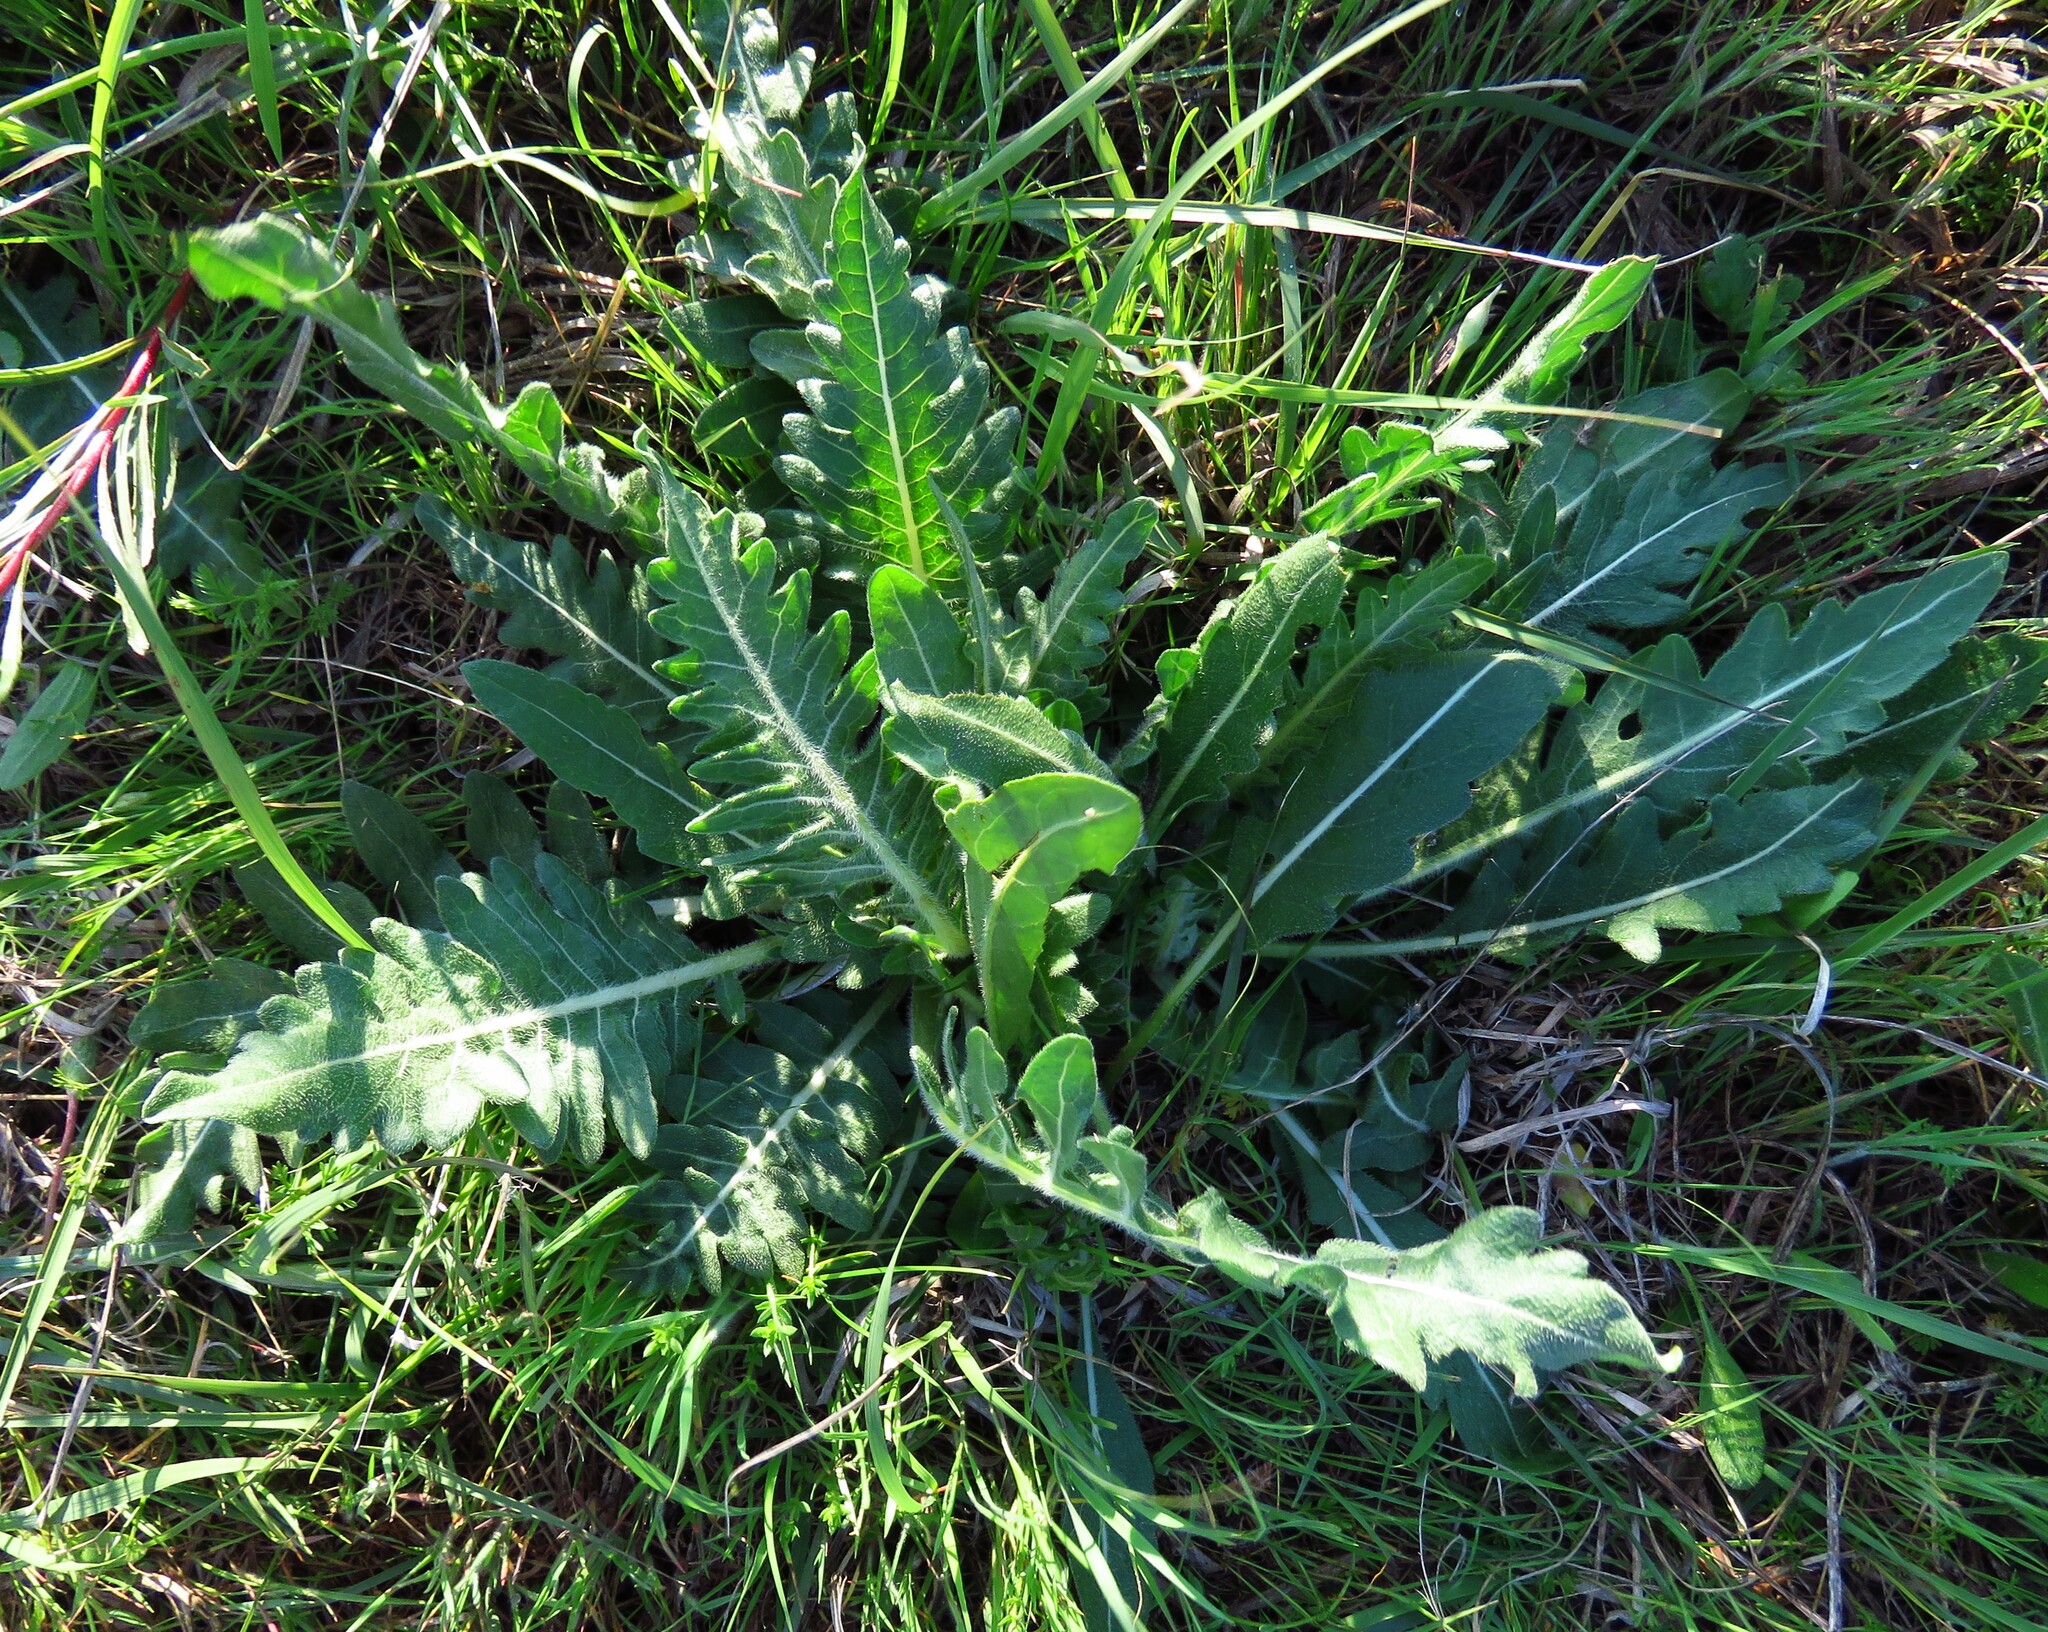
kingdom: Plantae
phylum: Tracheophyta
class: Magnoliopsida
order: Asterales
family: Asteraceae
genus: Engelmannia
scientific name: Engelmannia peristenia
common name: Engelmann's daisy
